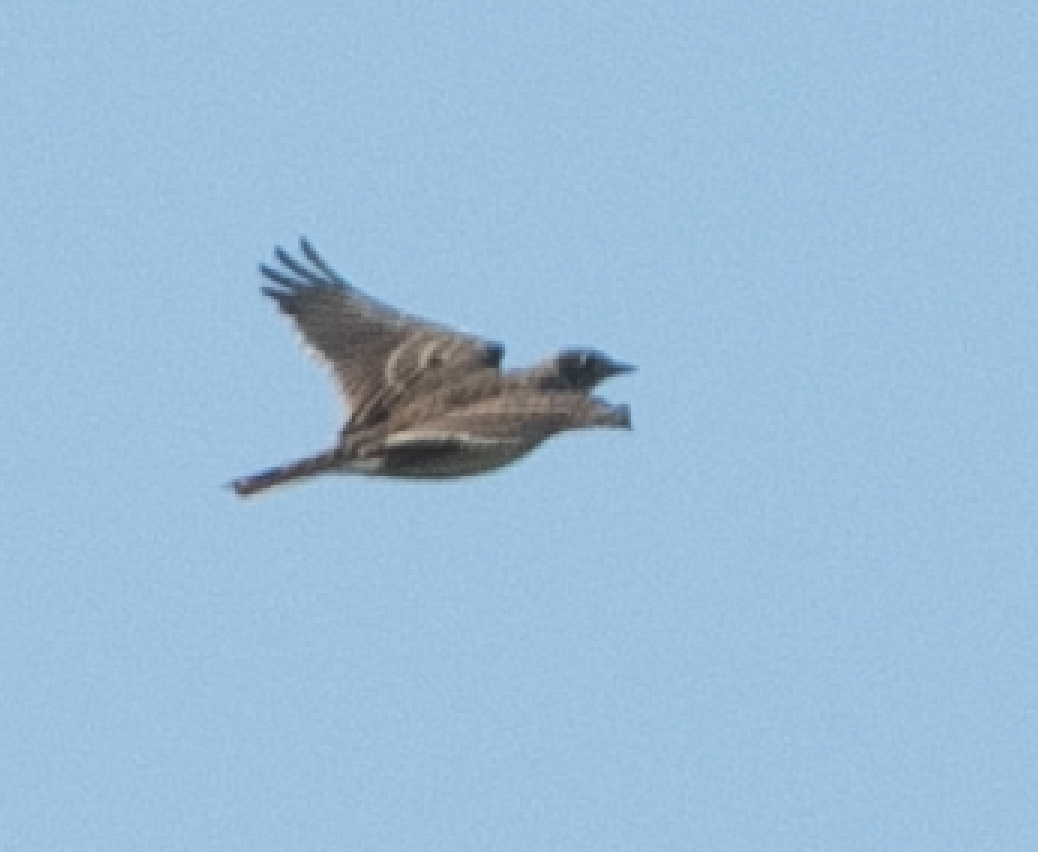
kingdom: Animalia
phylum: Chordata
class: Aves
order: Passeriformes
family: Alaudidae
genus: Alauda
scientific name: Alauda arvensis
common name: Eurasian skylark
